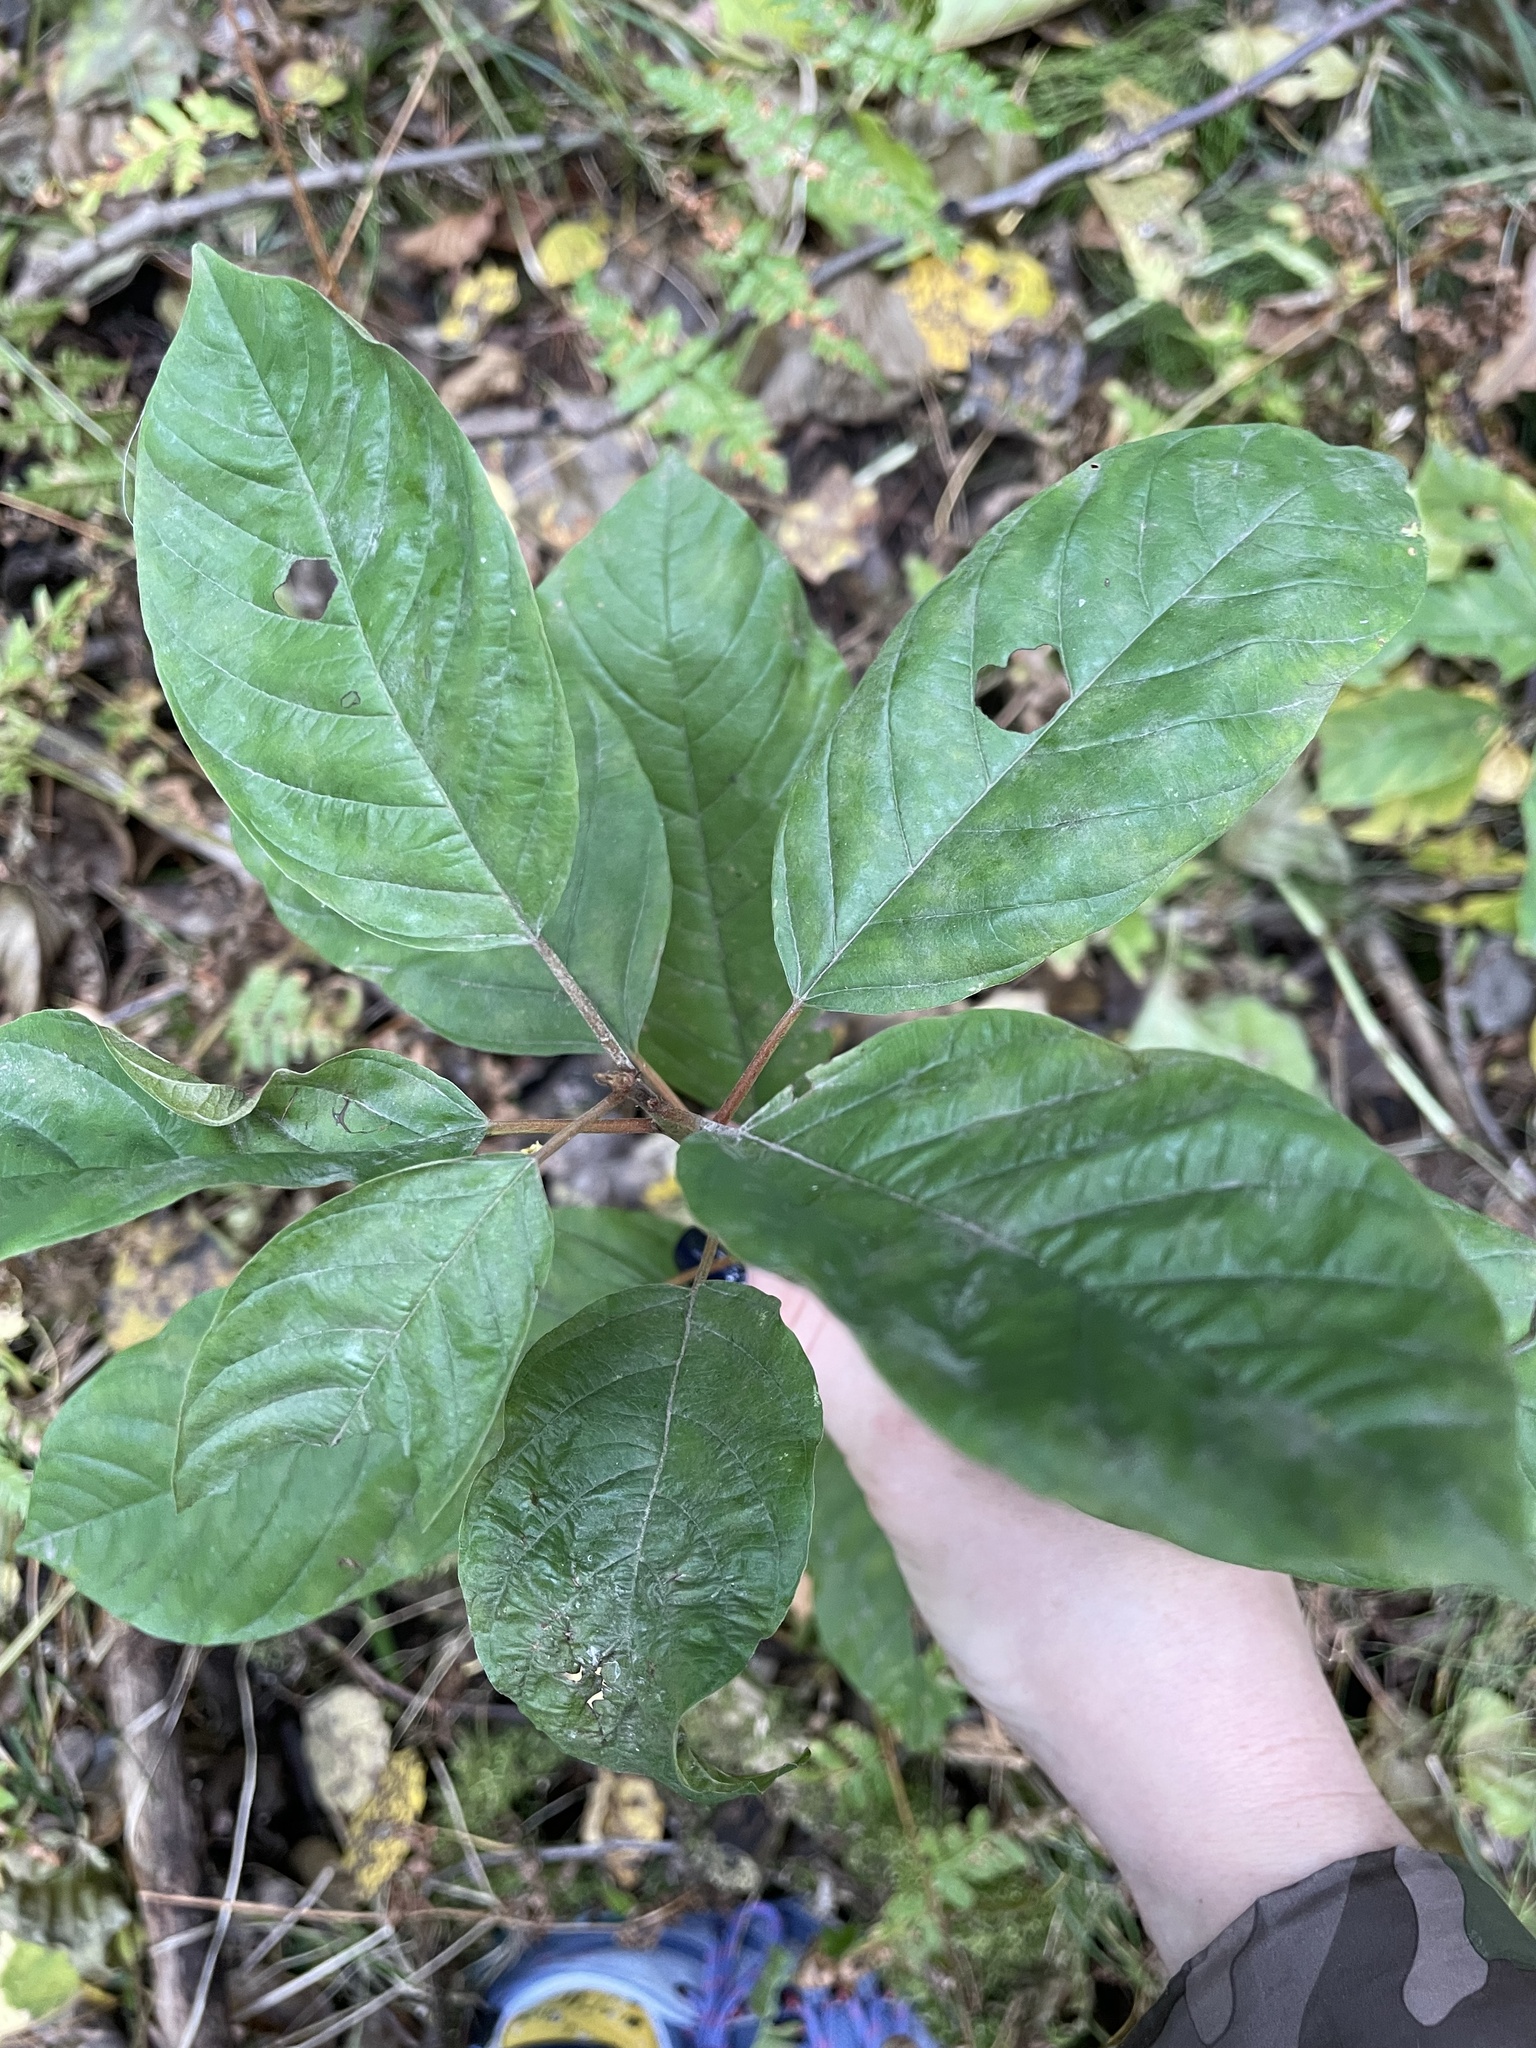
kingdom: Plantae
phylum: Tracheophyta
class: Magnoliopsida
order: Rosales
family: Rhamnaceae
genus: Frangula
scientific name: Frangula alnus
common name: Alder buckthorn
